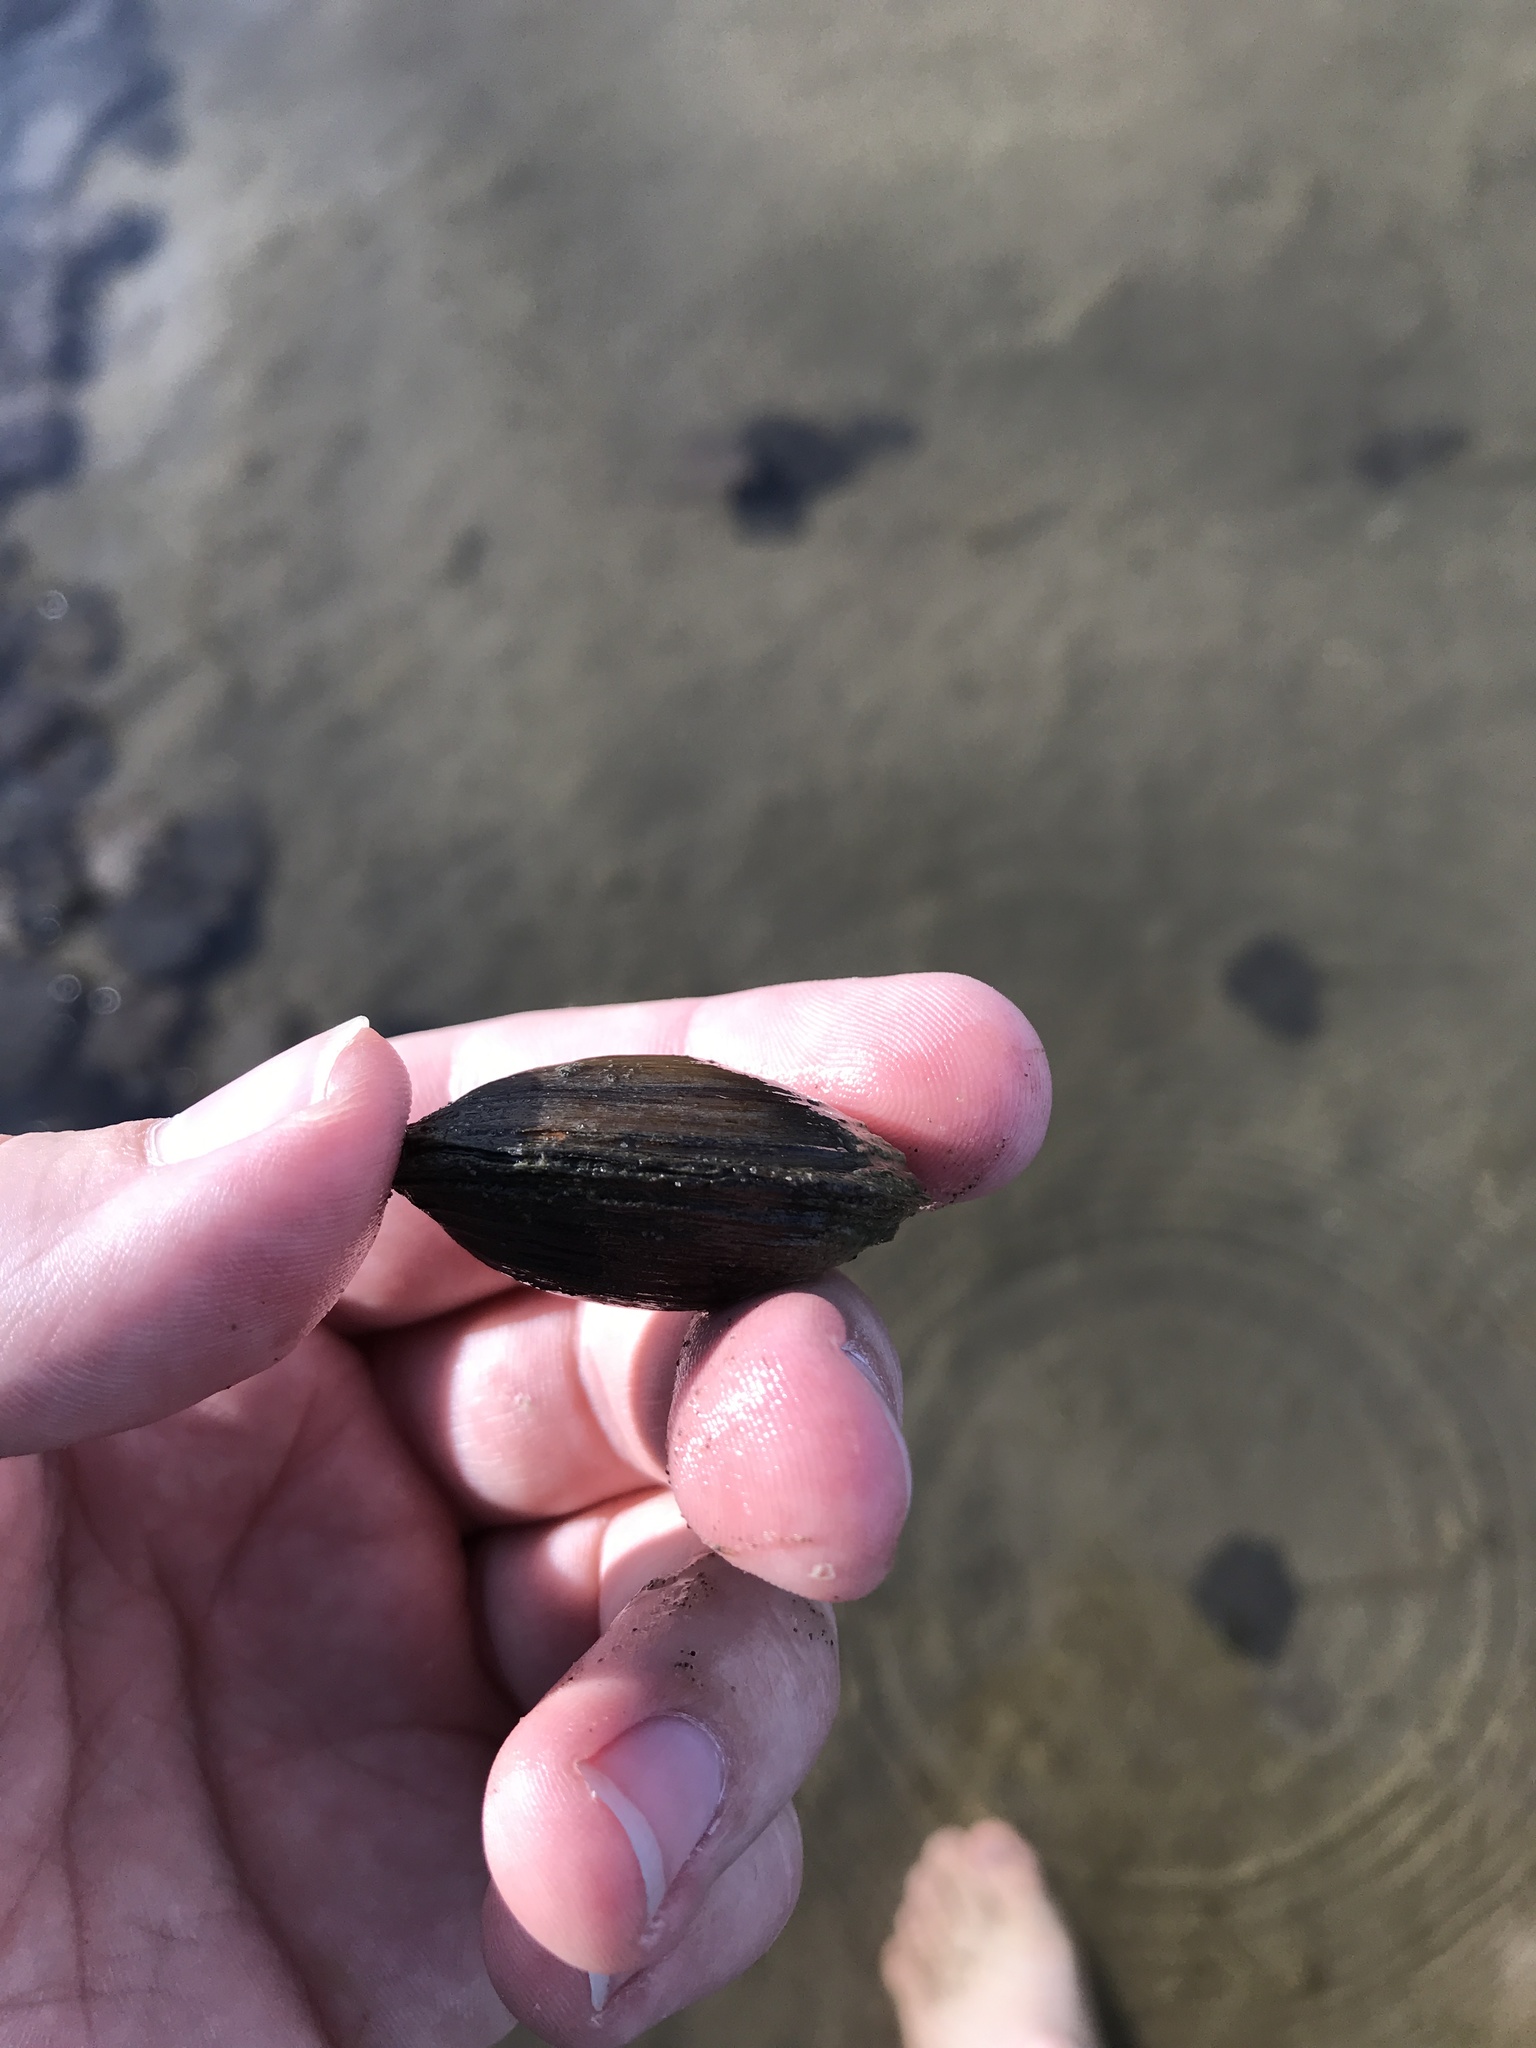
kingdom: Animalia
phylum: Mollusca
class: Bivalvia
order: Unionida
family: Unionidae
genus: Toxolasma
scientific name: Toxolasma parvum
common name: Lilliput
